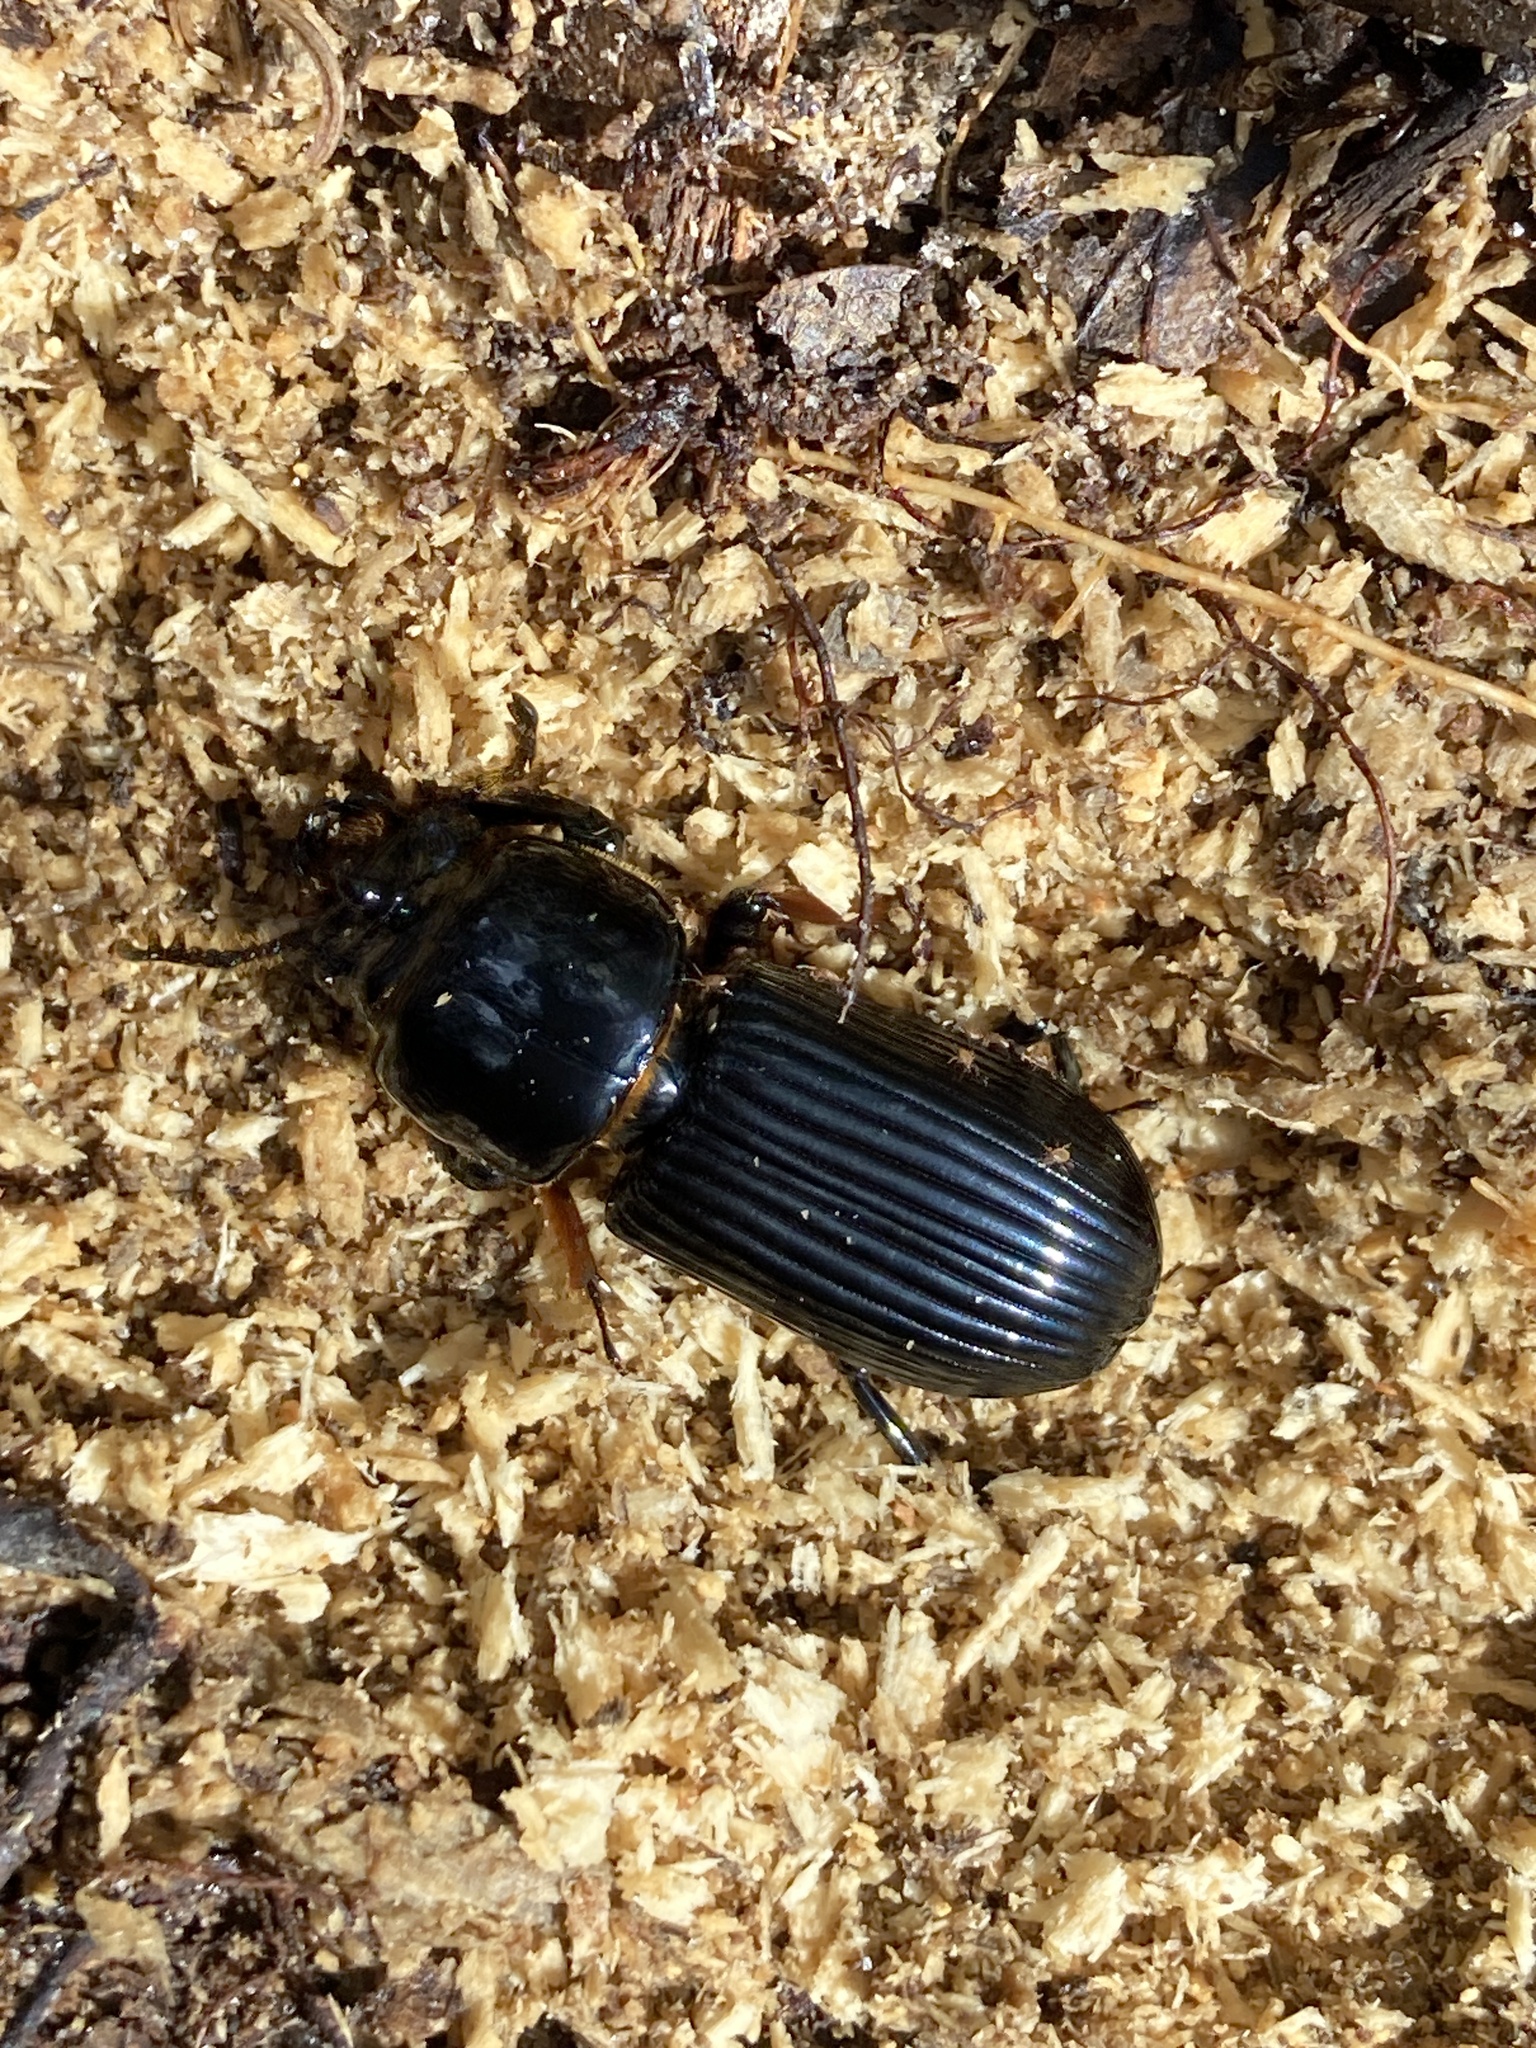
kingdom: Animalia
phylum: Arthropoda
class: Insecta
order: Coleoptera
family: Passalidae
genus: Odontotaenius
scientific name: Odontotaenius disjunctus
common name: Patent leather beetle
